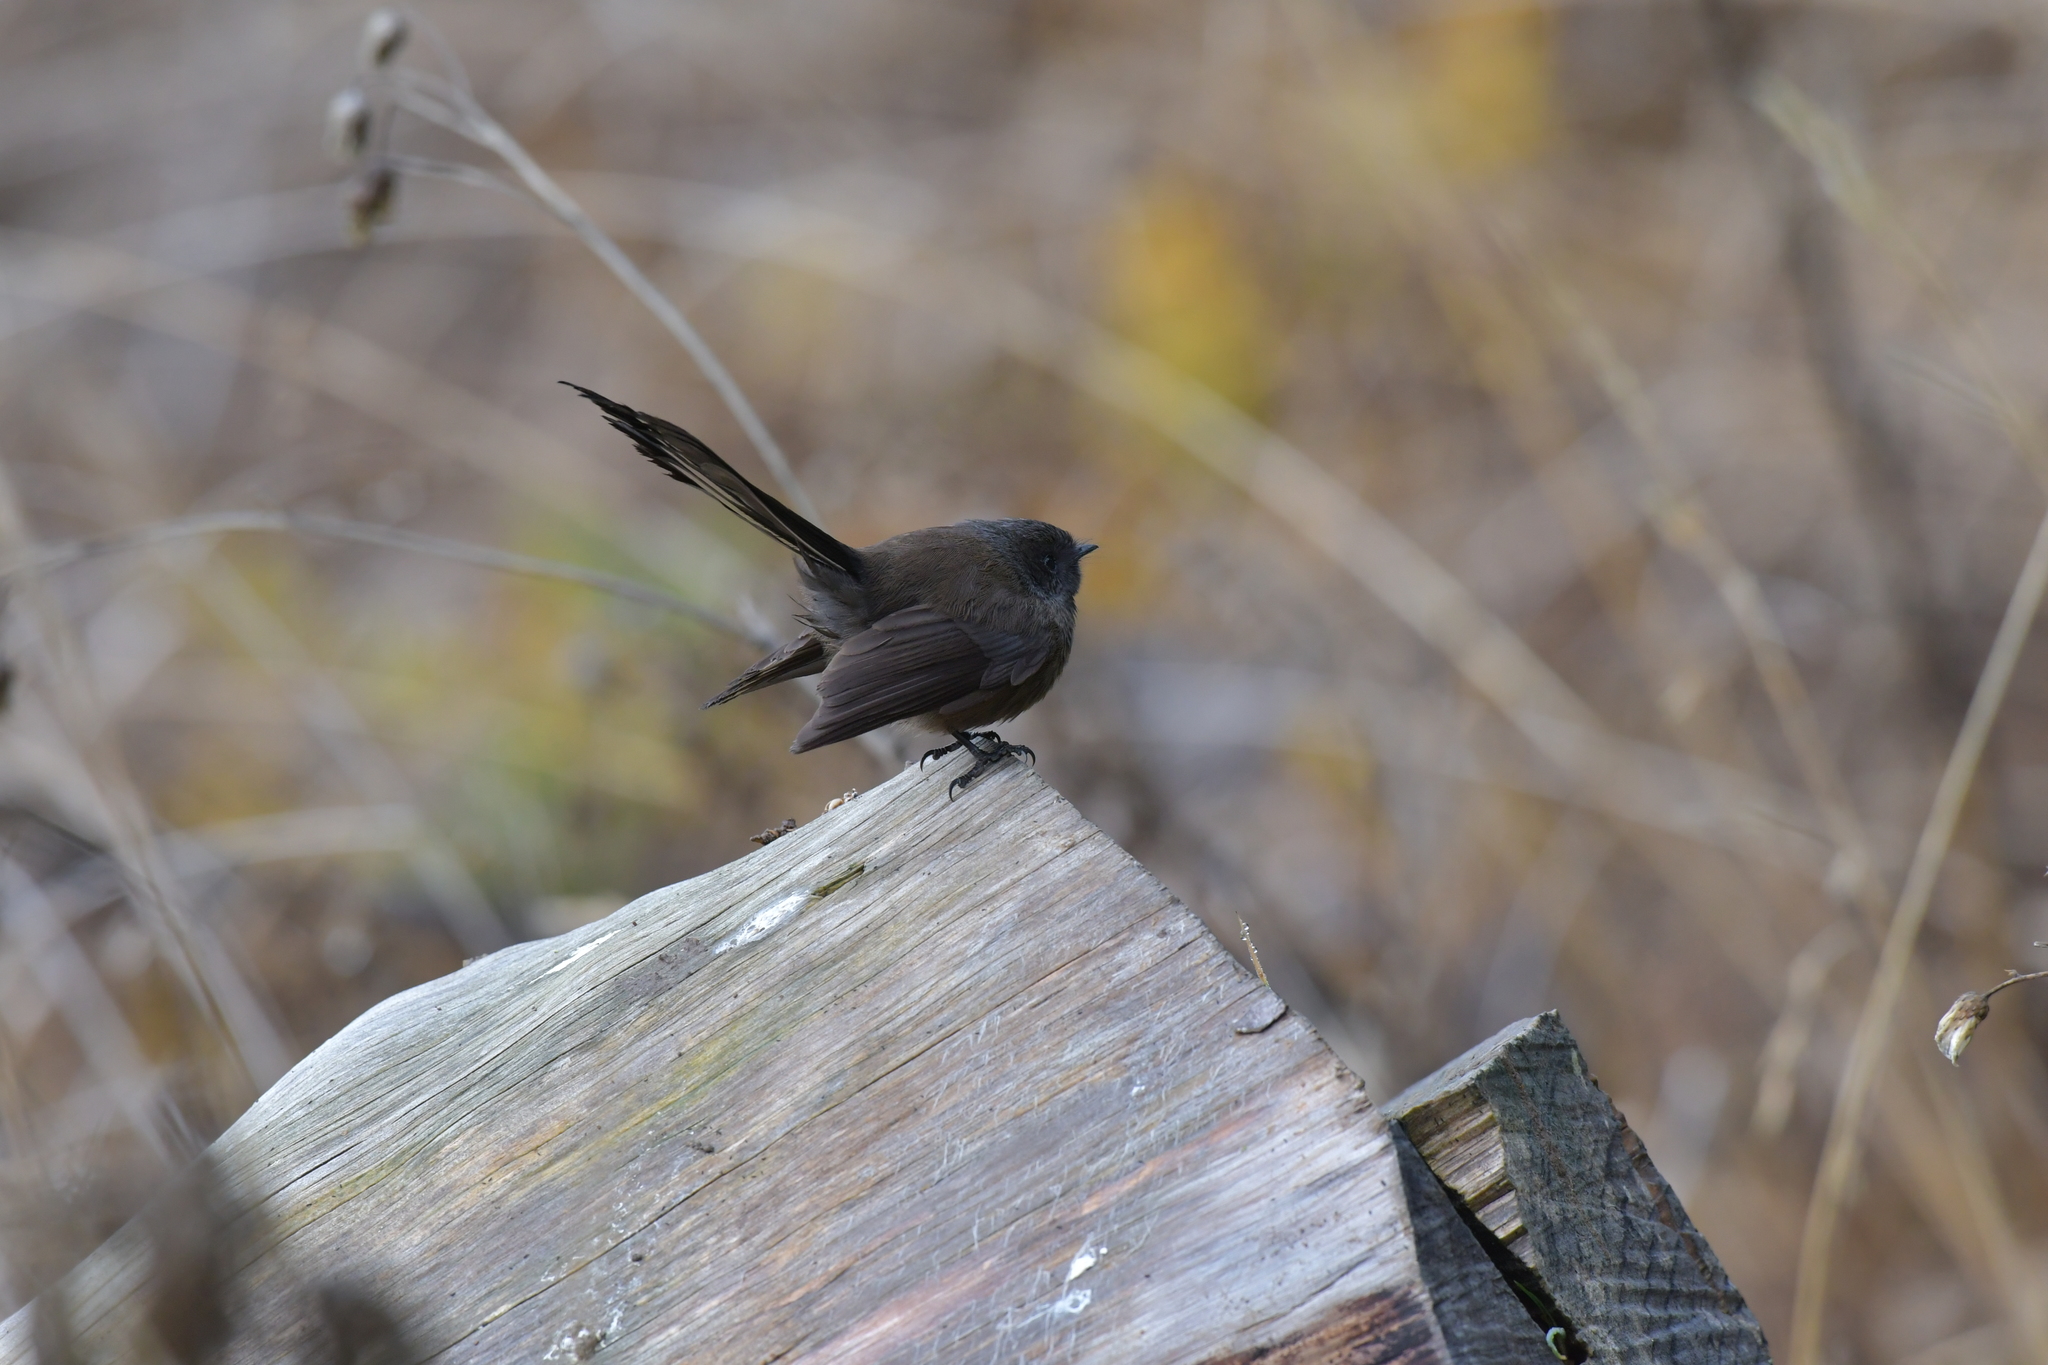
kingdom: Animalia
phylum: Chordata
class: Aves
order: Passeriformes
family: Rhipiduridae
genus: Rhipidura
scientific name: Rhipidura fuliginosa
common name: New zealand fantail
